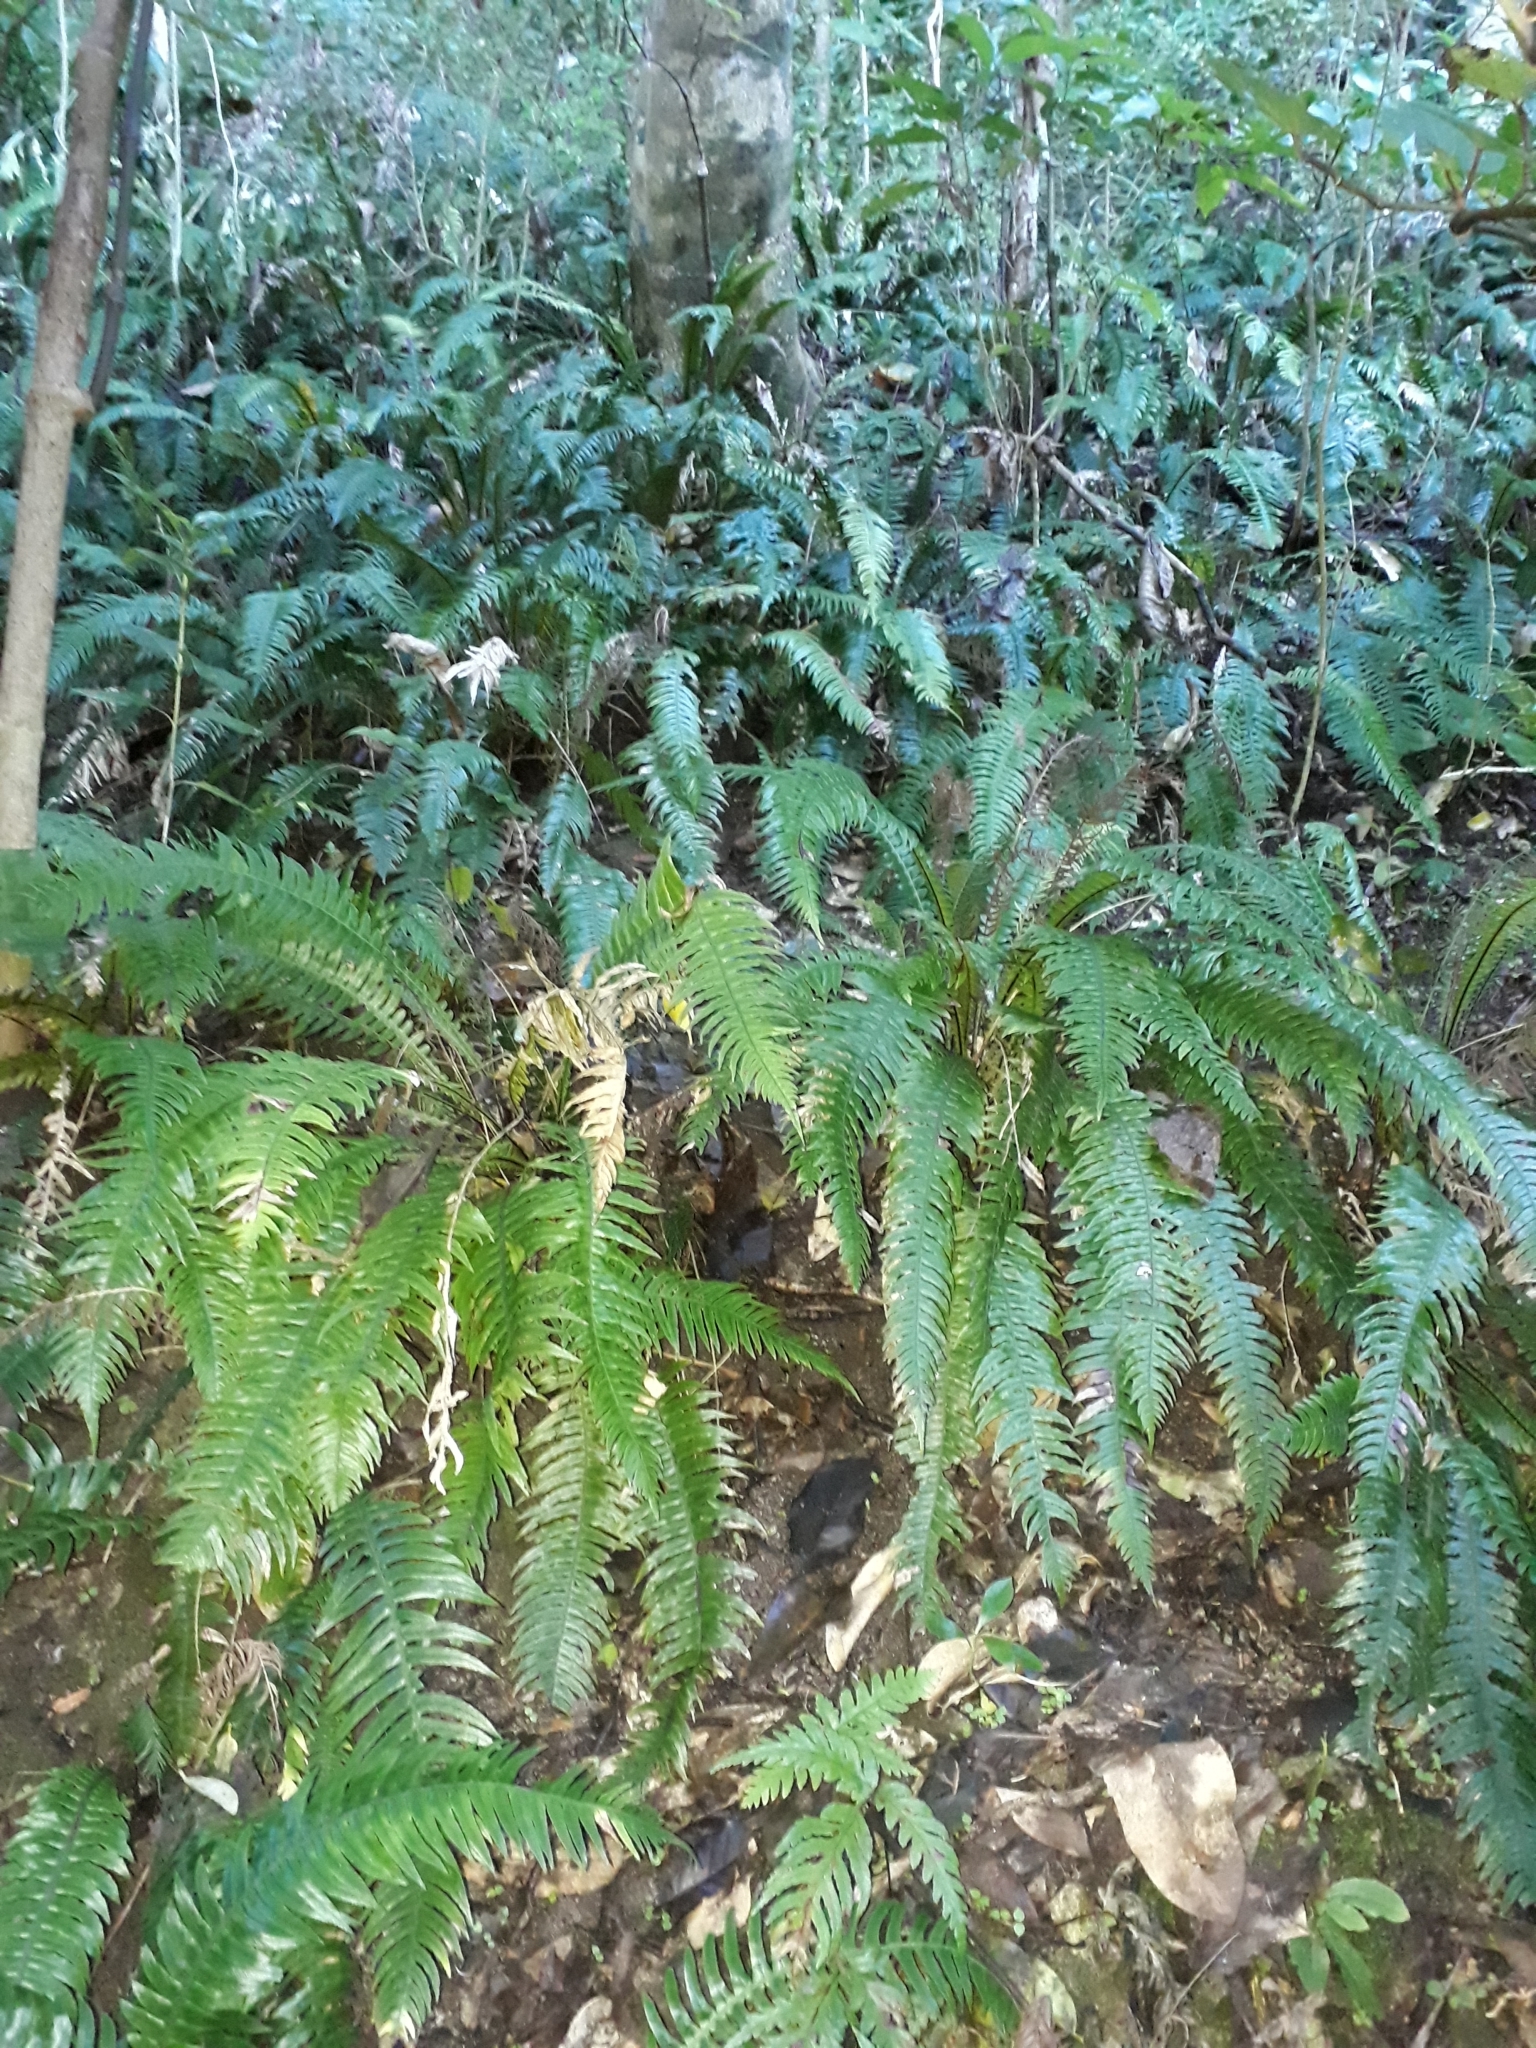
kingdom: Plantae
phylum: Tracheophyta
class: Polypodiopsida
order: Polypodiales
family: Blechnaceae
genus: Austroblechnum
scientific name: Austroblechnum norfolkianum
